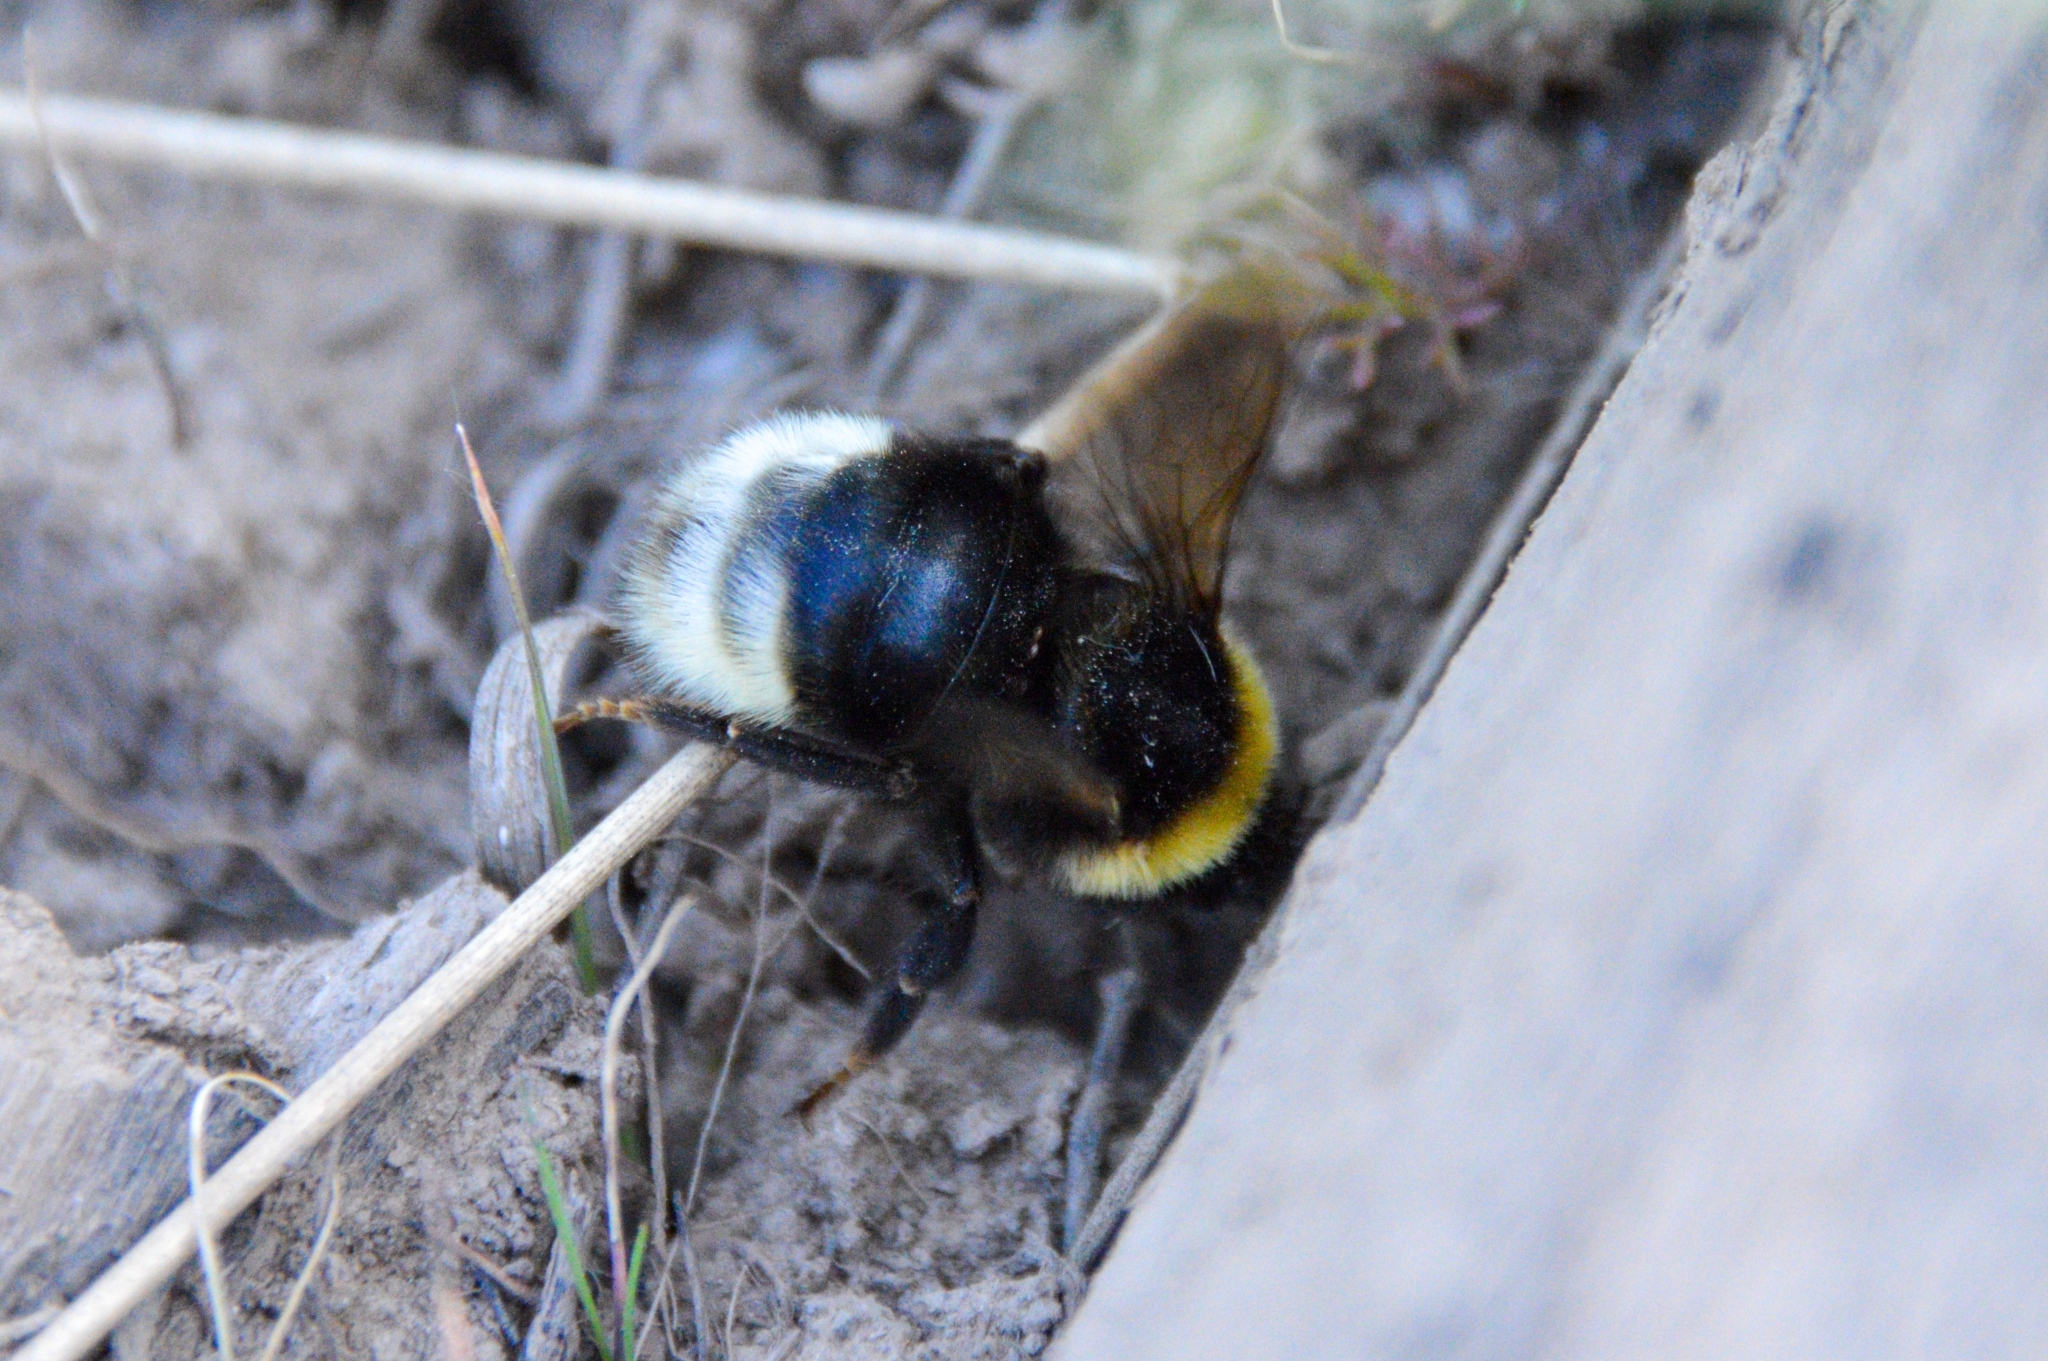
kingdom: Animalia
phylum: Arthropoda
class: Insecta
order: Hymenoptera
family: Apidae
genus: Bombus
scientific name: Bombus bohemicus
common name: Gypsy cuckoo bee
